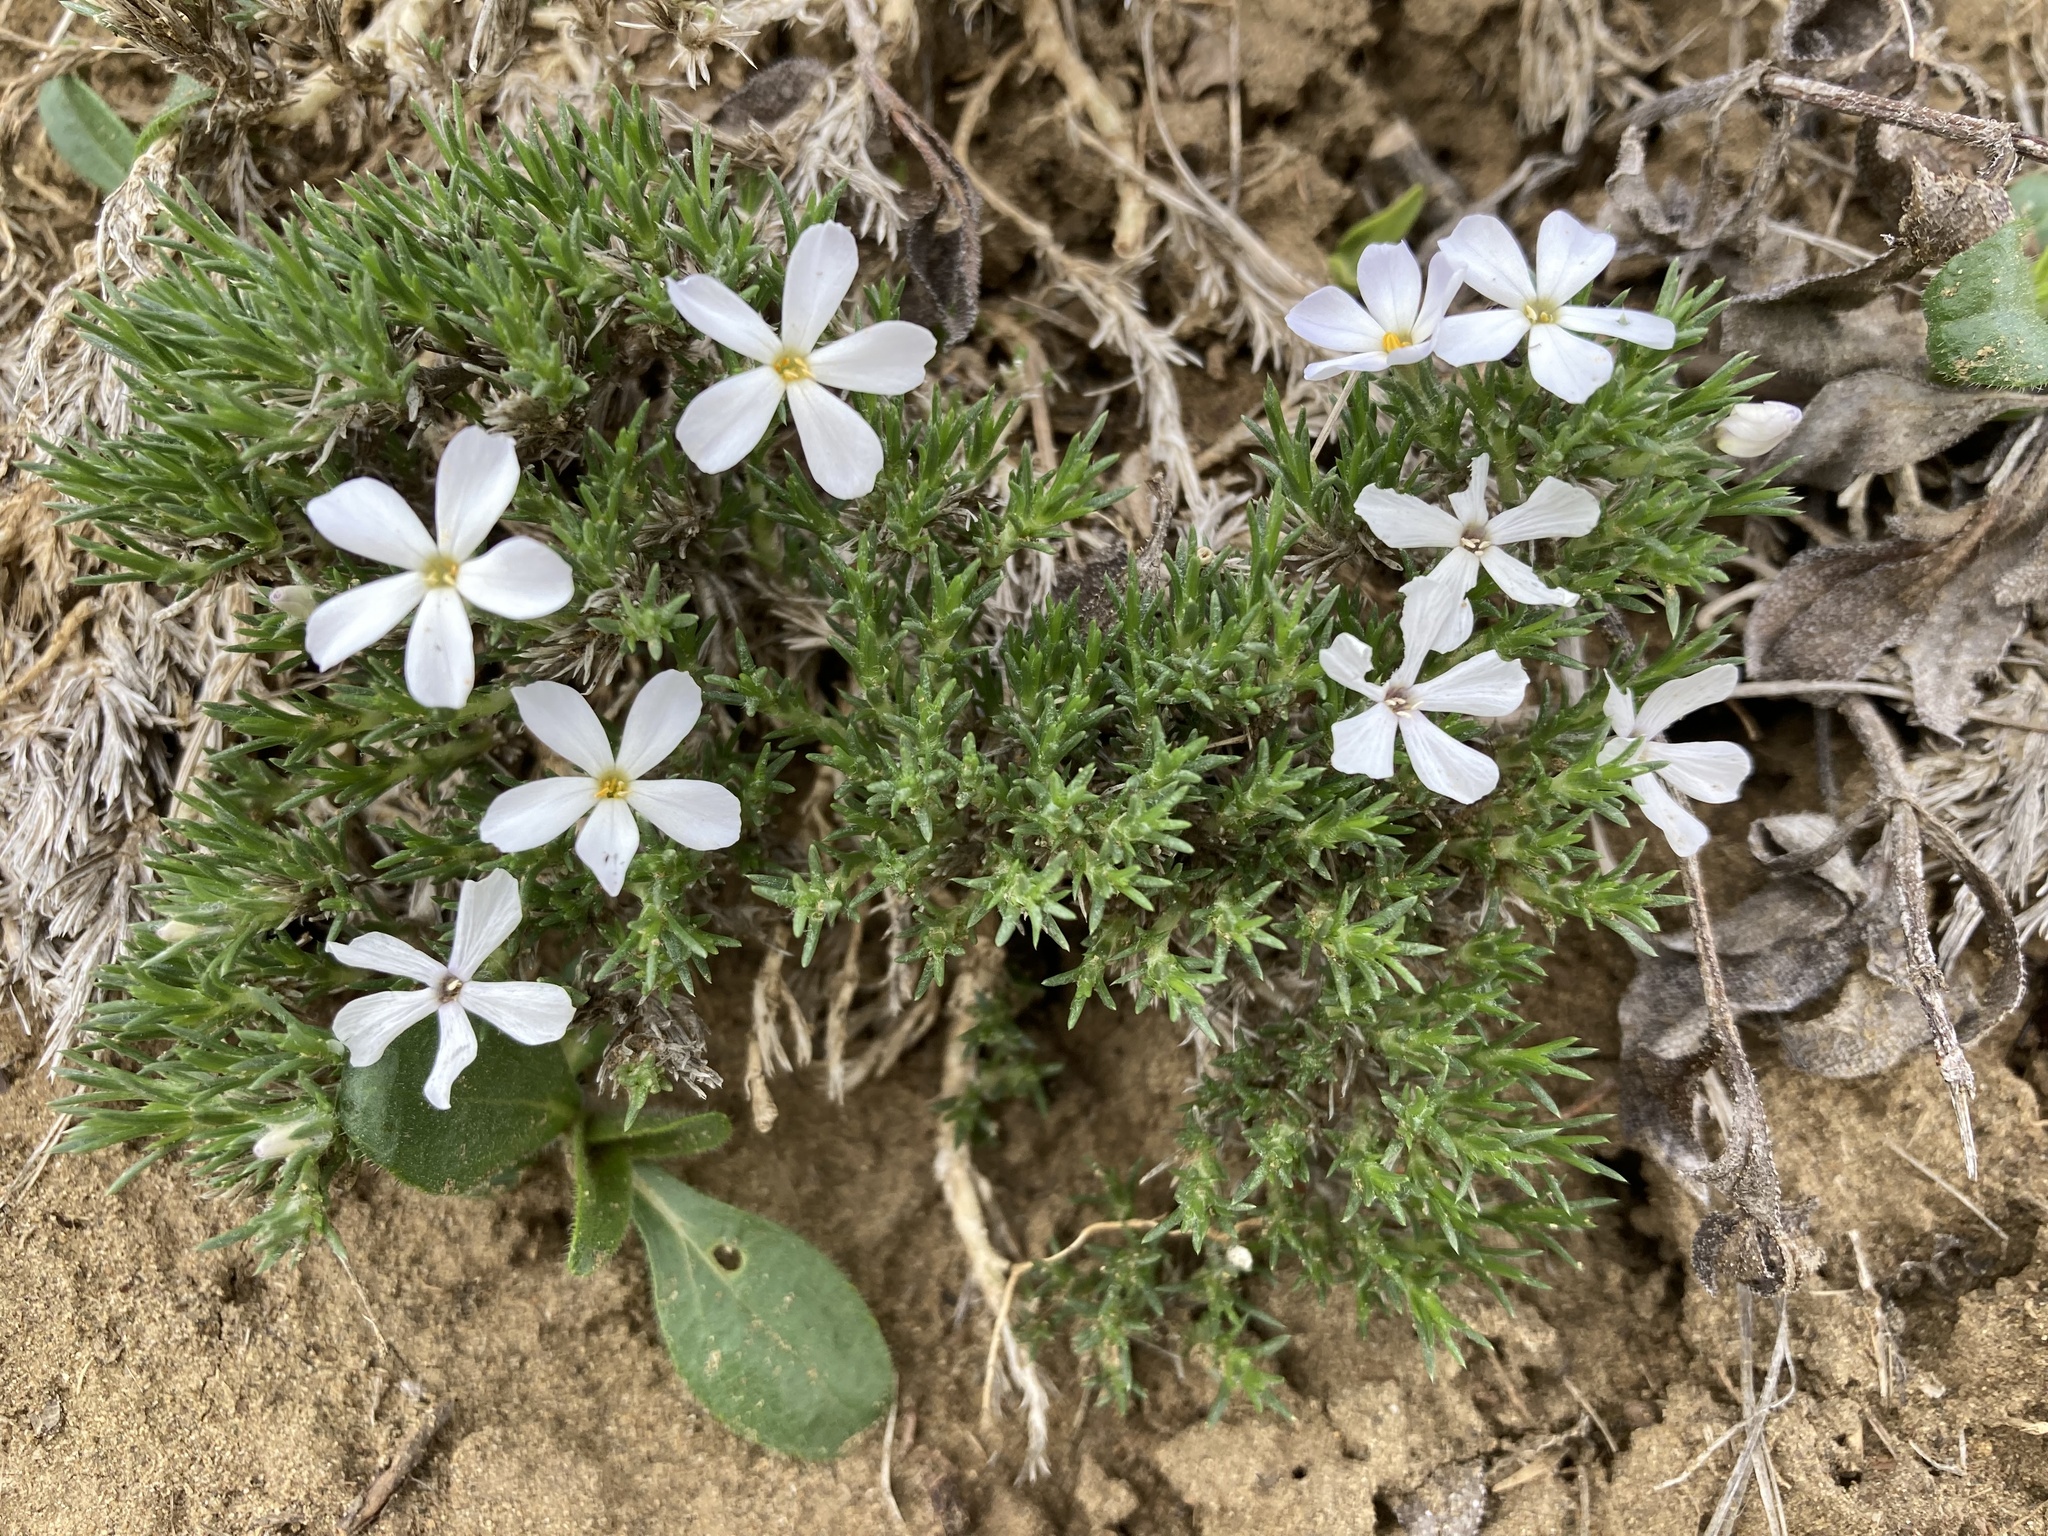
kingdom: Plantae
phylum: Tracheophyta
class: Magnoliopsida
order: Ericales
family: Polemoniaceae
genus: Phlox
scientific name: Phlox hoodii
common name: Moss phlox
